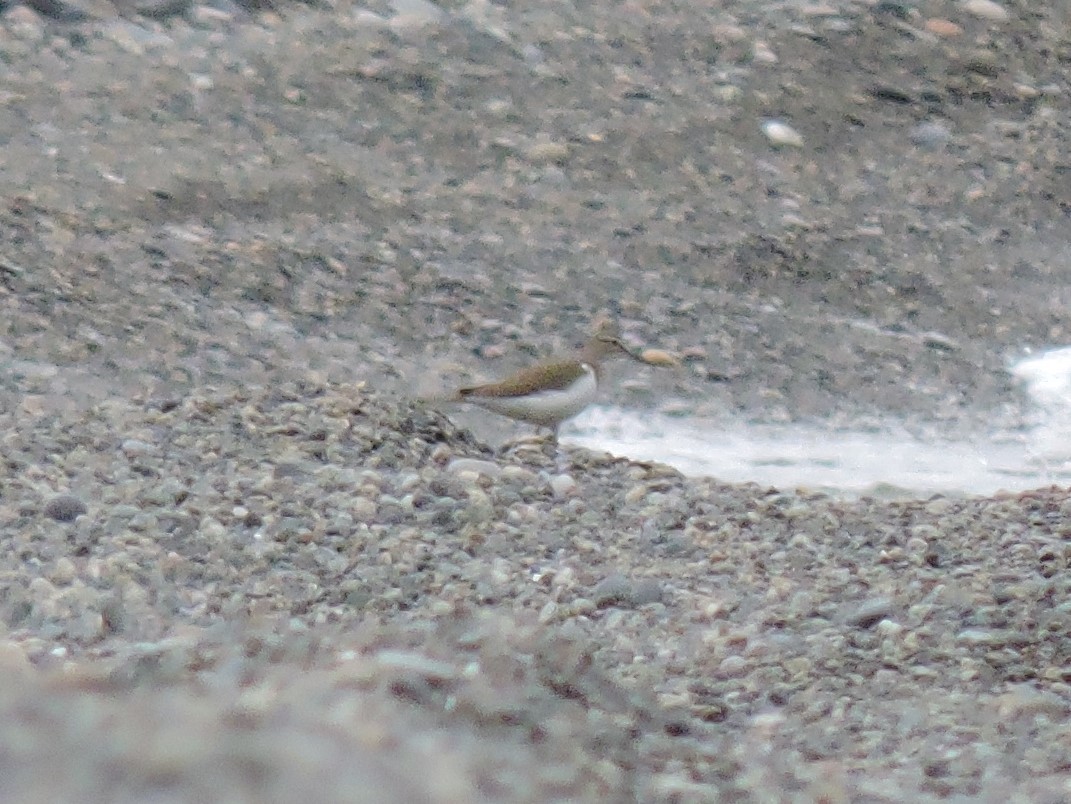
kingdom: Animalia
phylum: Chordata
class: Aves
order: Charadriiformes
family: Scolopacidae
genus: Actitis
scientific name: Actitis hypoleucos
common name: Common sandpiper
